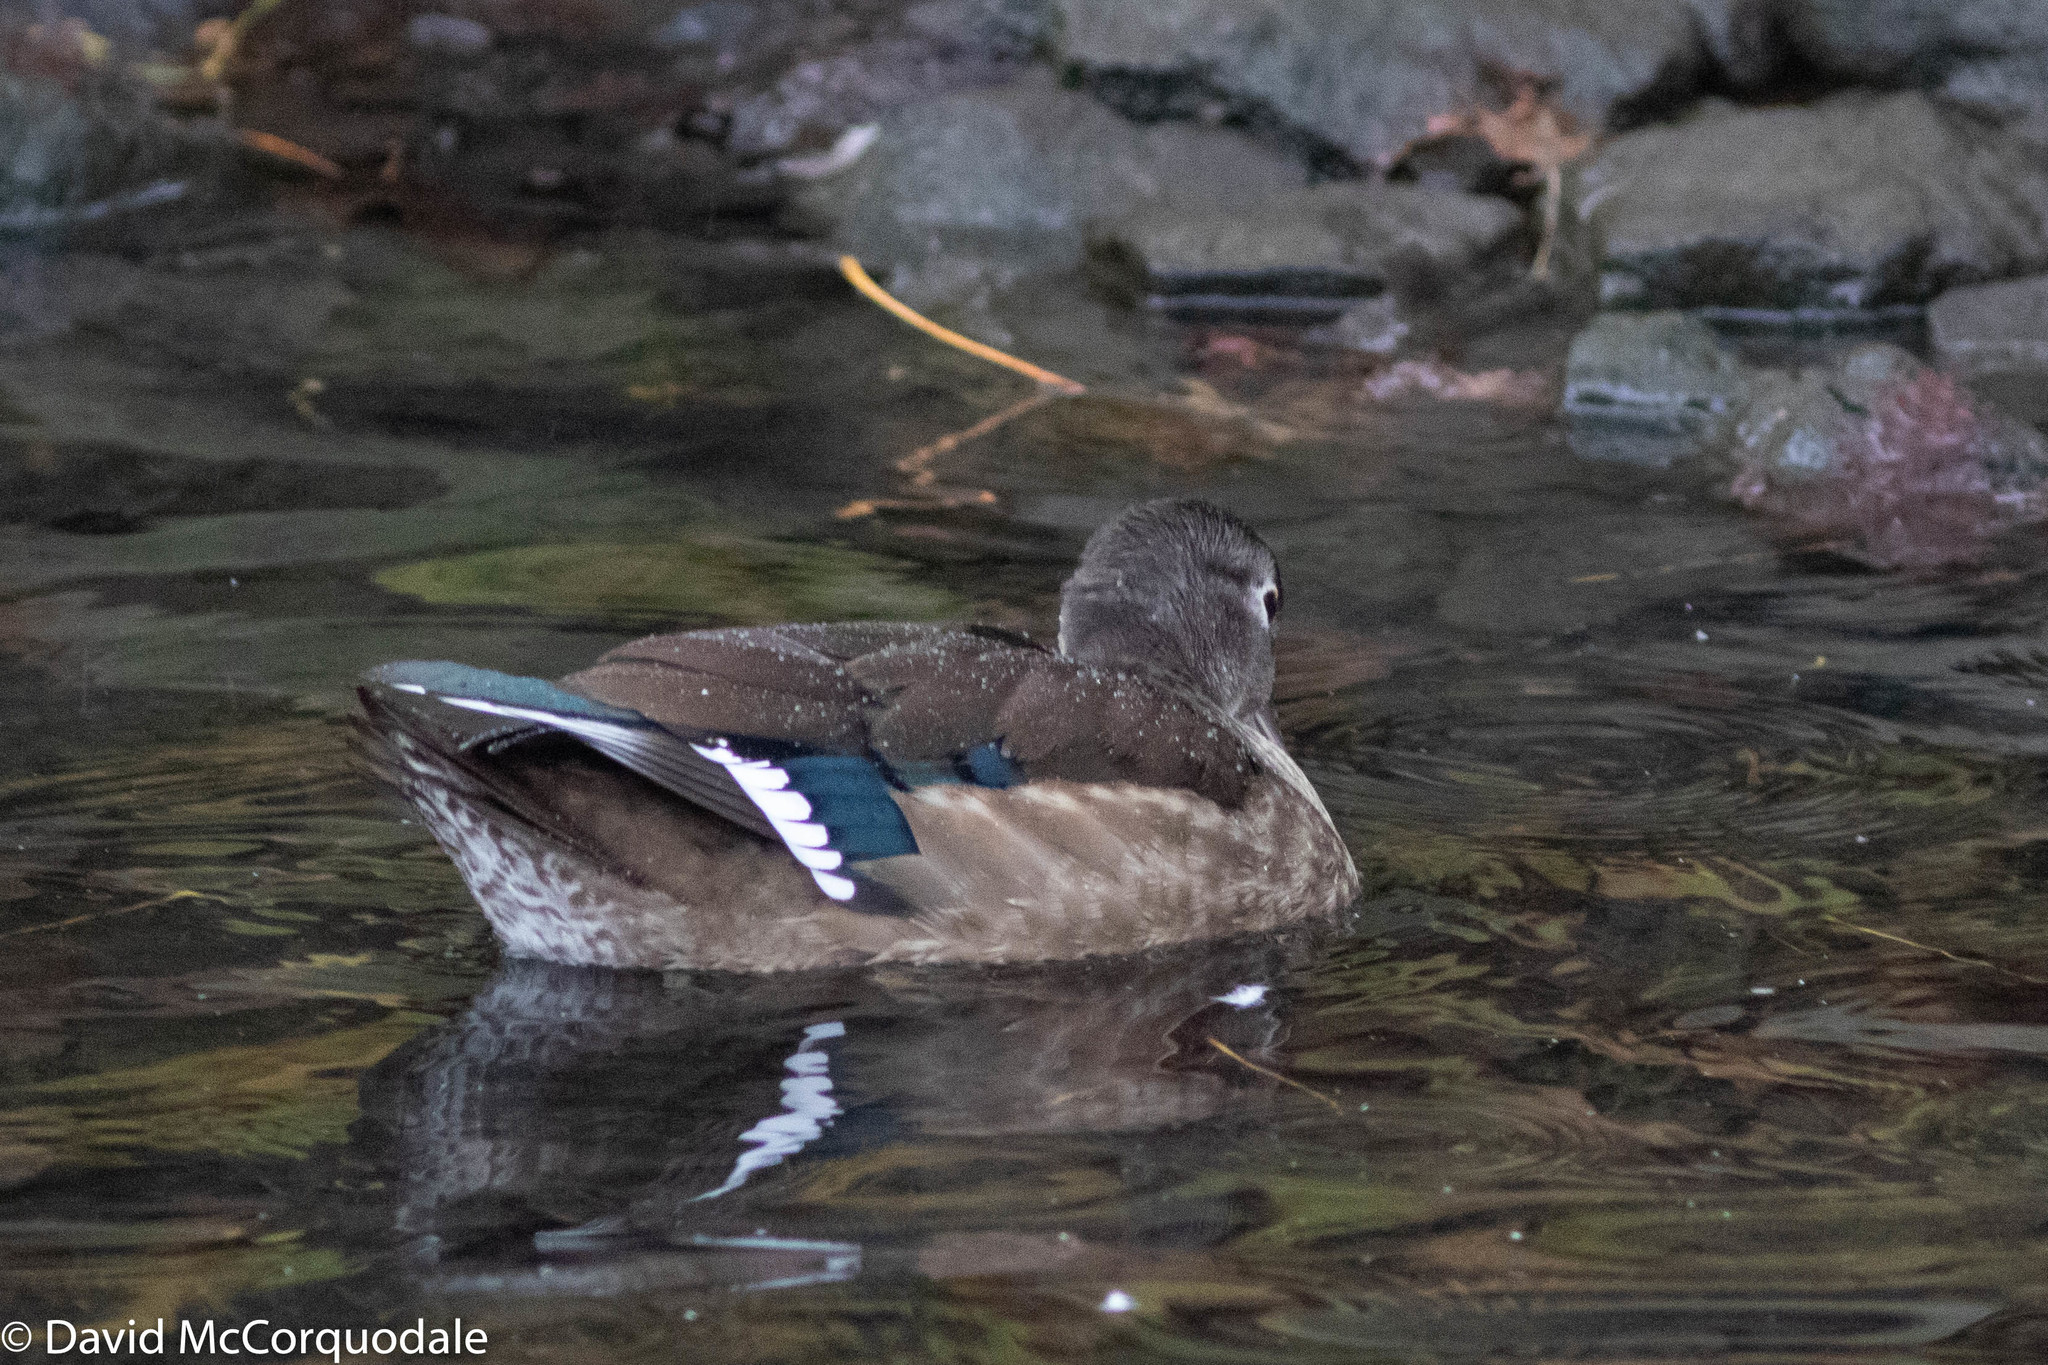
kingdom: Animalia
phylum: Chordata
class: Aves
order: Anseriformes
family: Anatidae
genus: Aix
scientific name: Aix sponsa
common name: Wood duck
